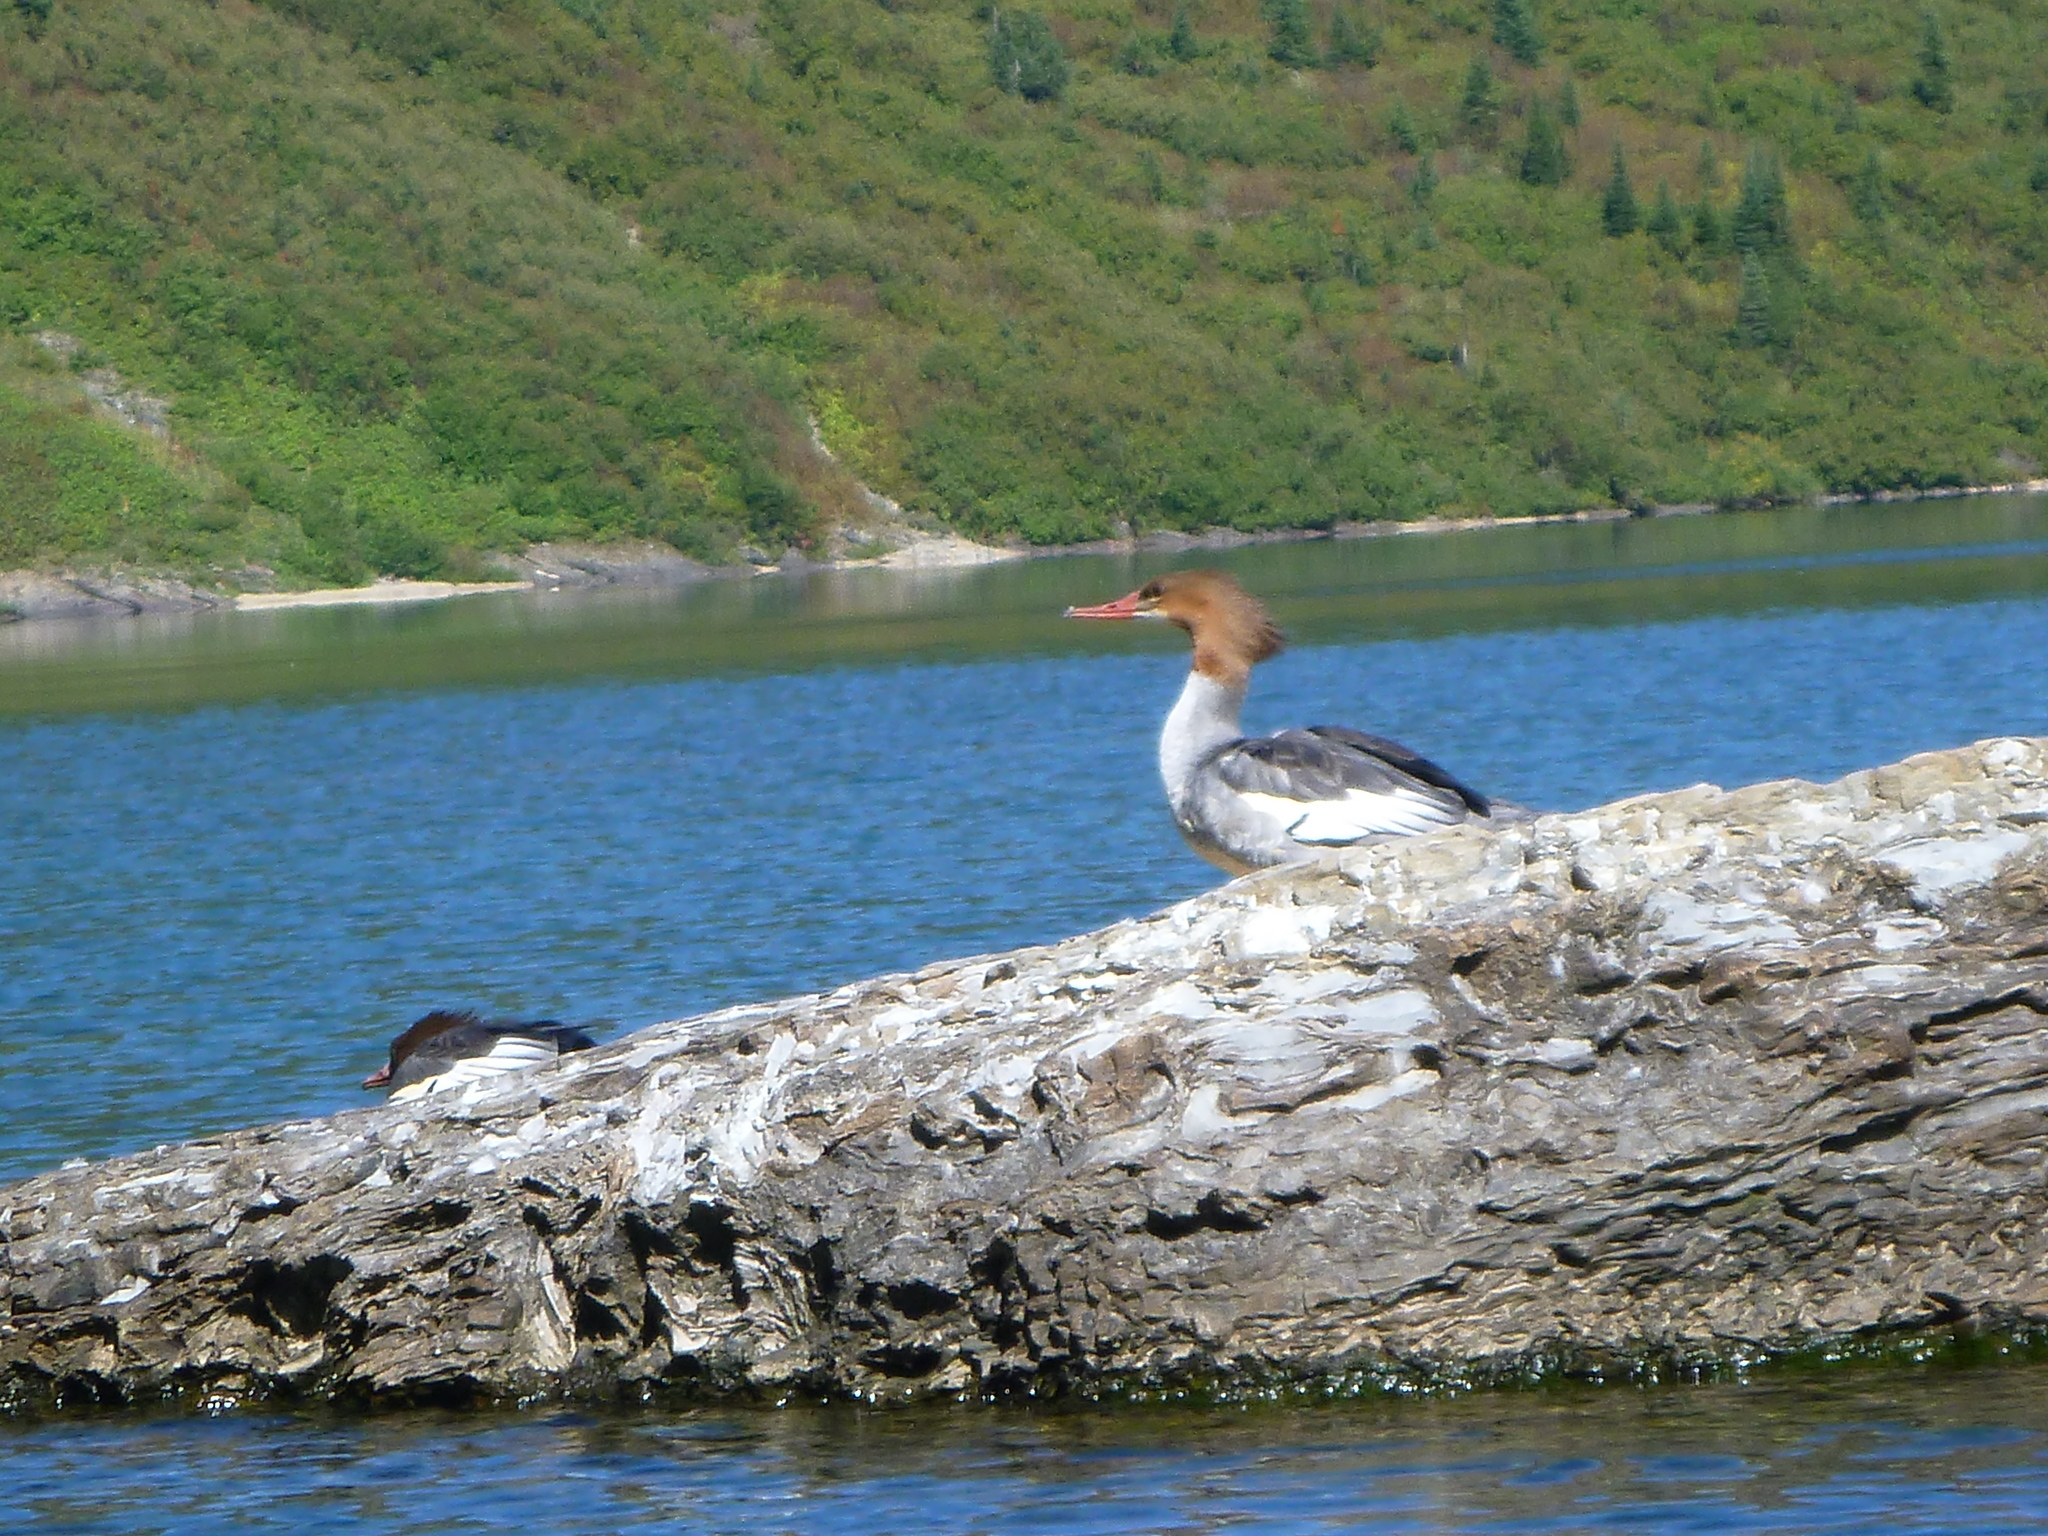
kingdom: Animalia
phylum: Chordata
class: Aves
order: Anseriformes
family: Anatidae
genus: Mergus
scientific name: Mergus merganser
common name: Common merganser
